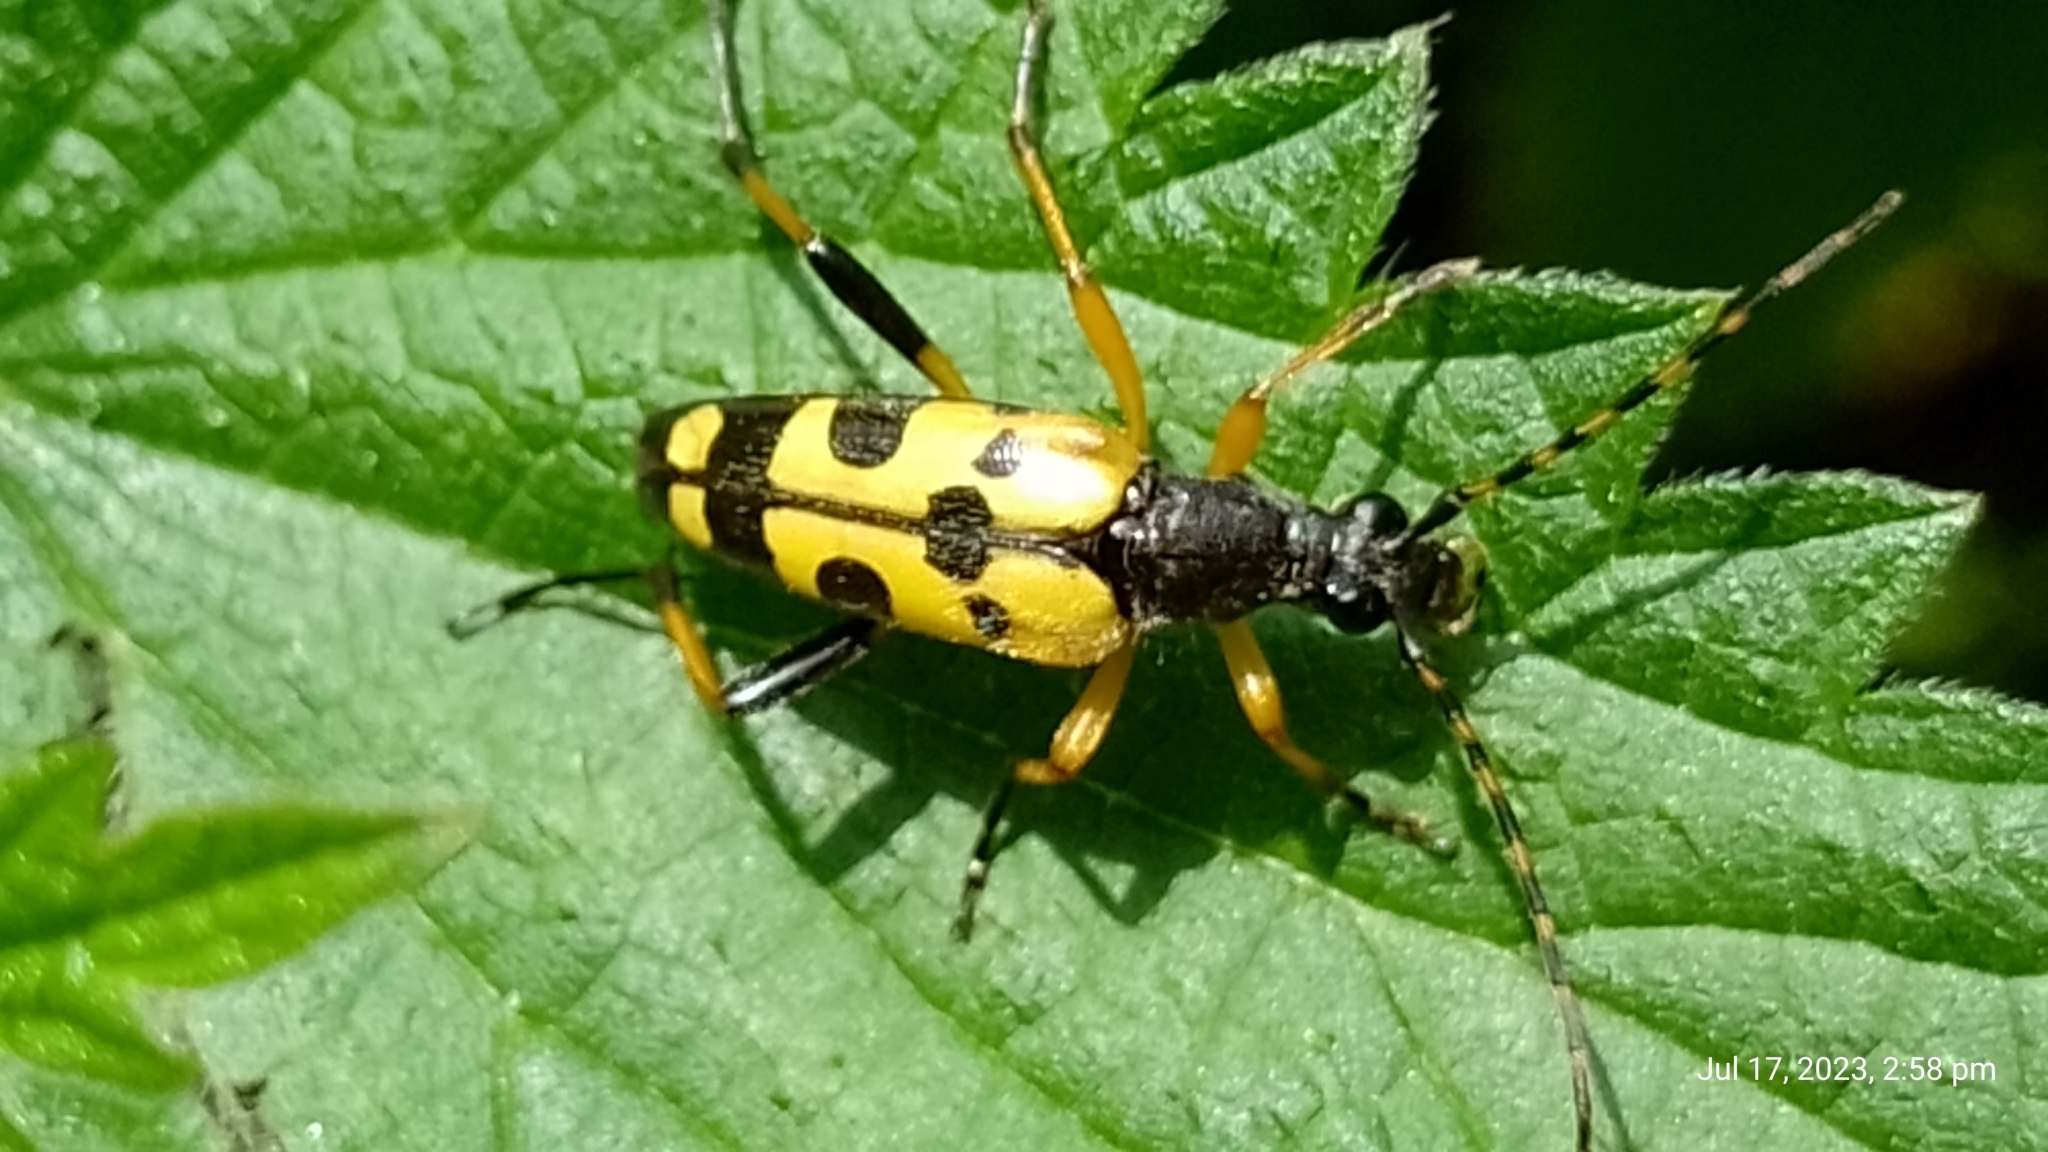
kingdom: Animalia
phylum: Arthropoda
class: Insecta
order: Coleoptera
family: Cerambycidae
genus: Rutpela
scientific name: Rutpela maculata
